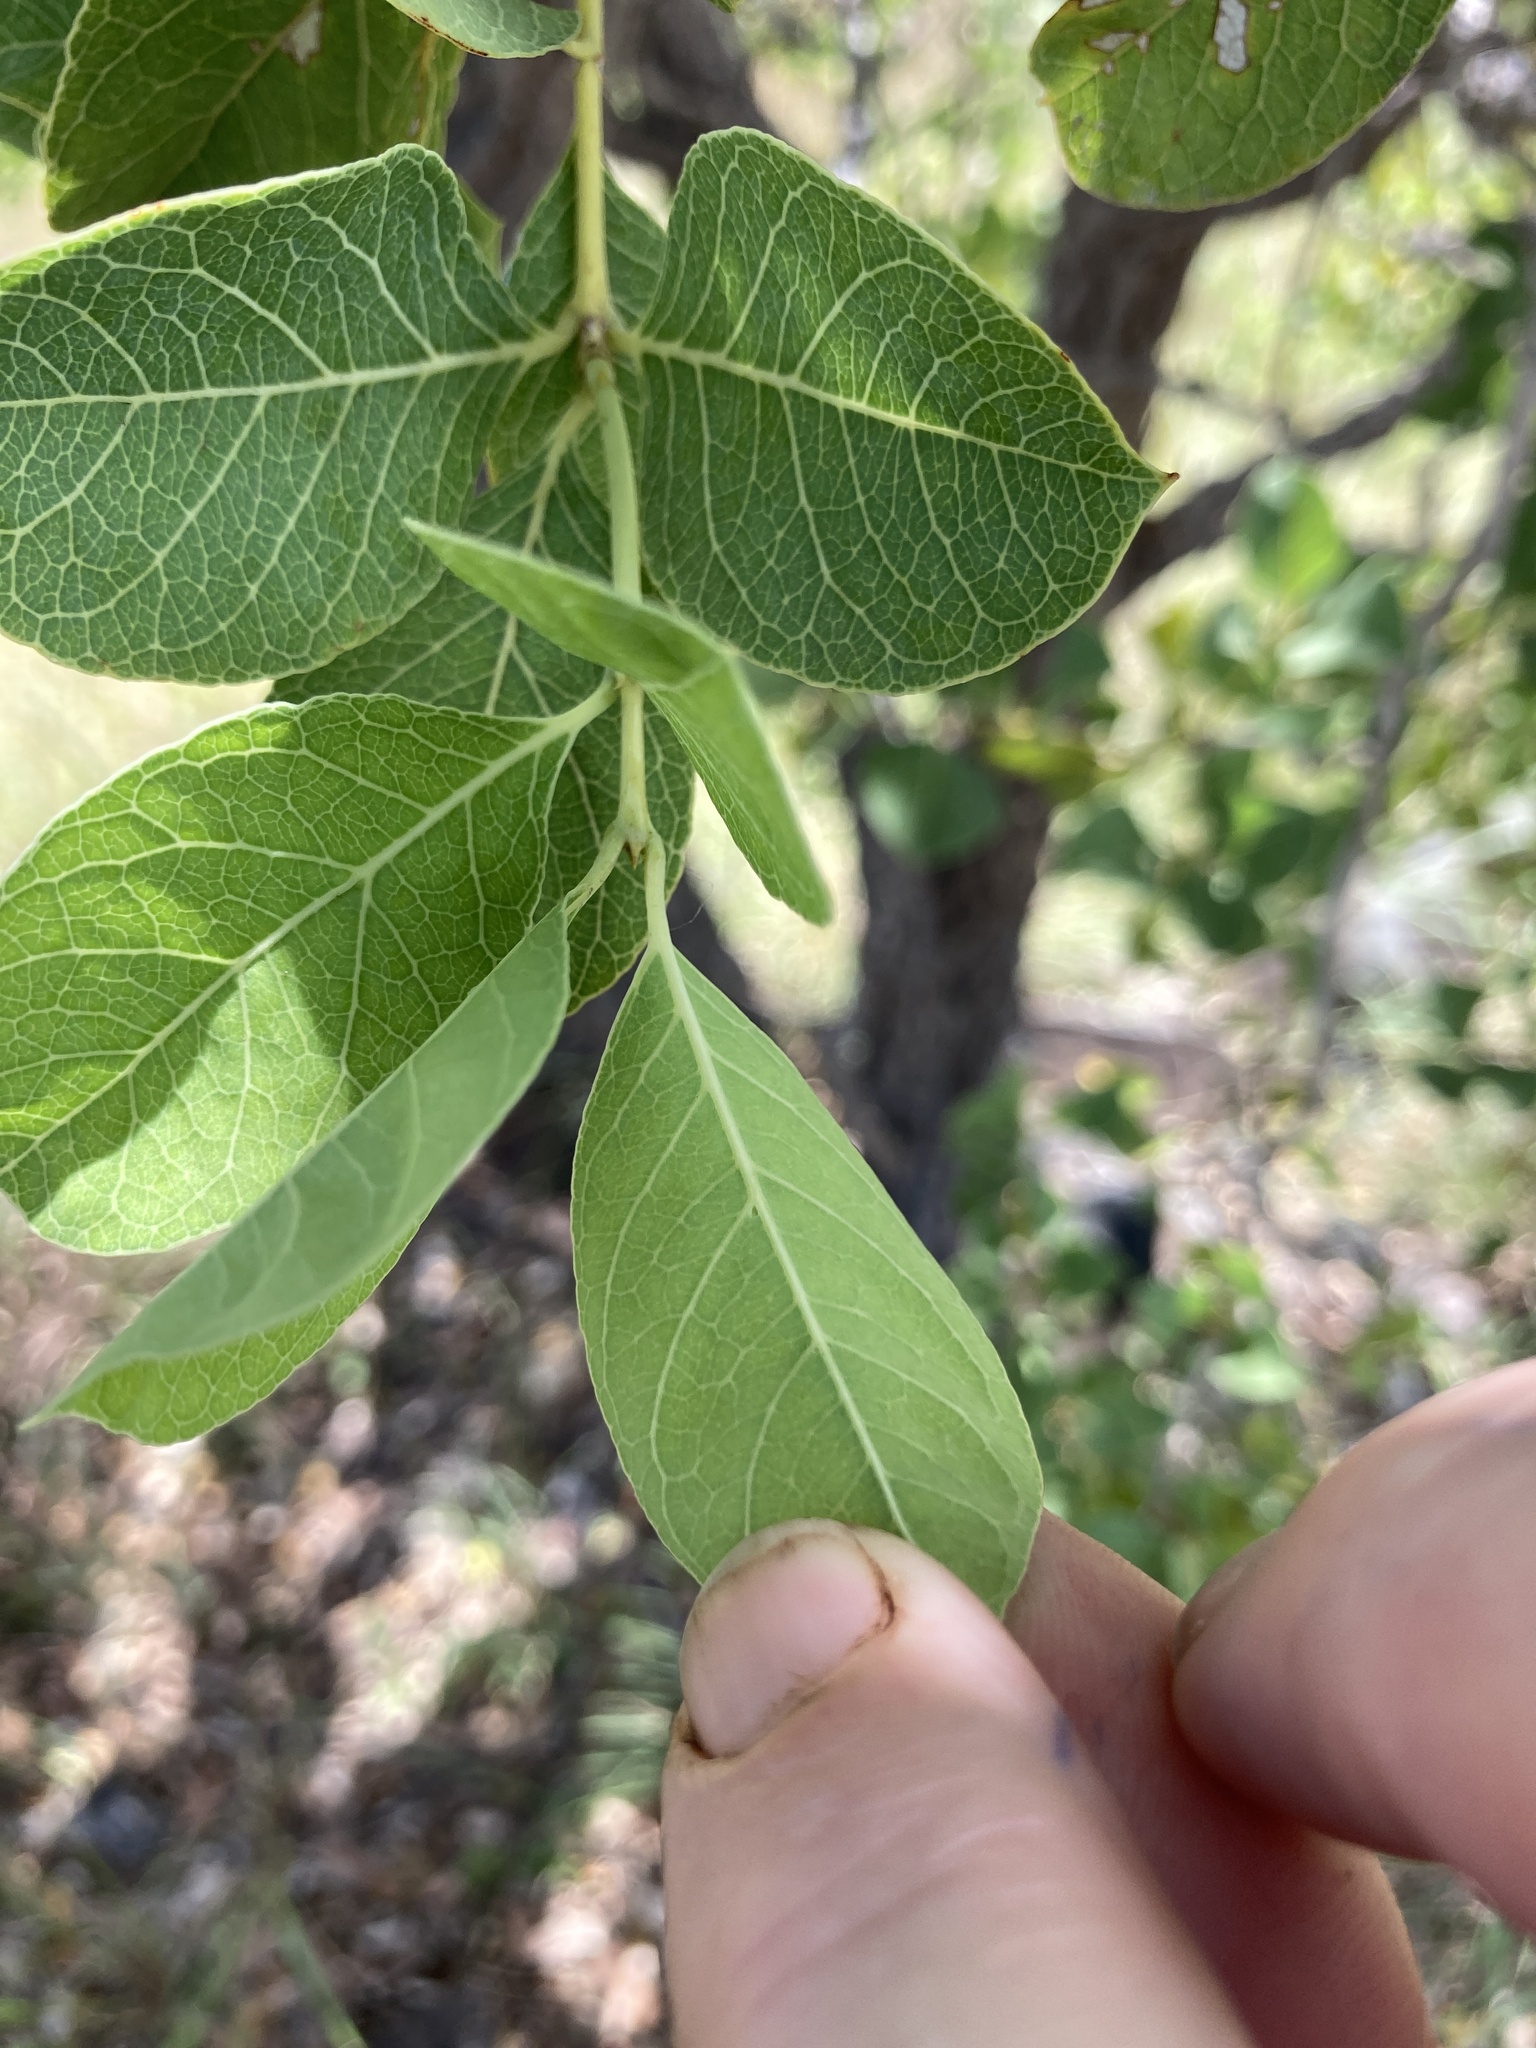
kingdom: Plantae
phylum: Tracheophyta
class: Magnoliopsida
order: Gentianales
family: Rubiaceae
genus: Coelospermum
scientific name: Coelospermum reticulatum
